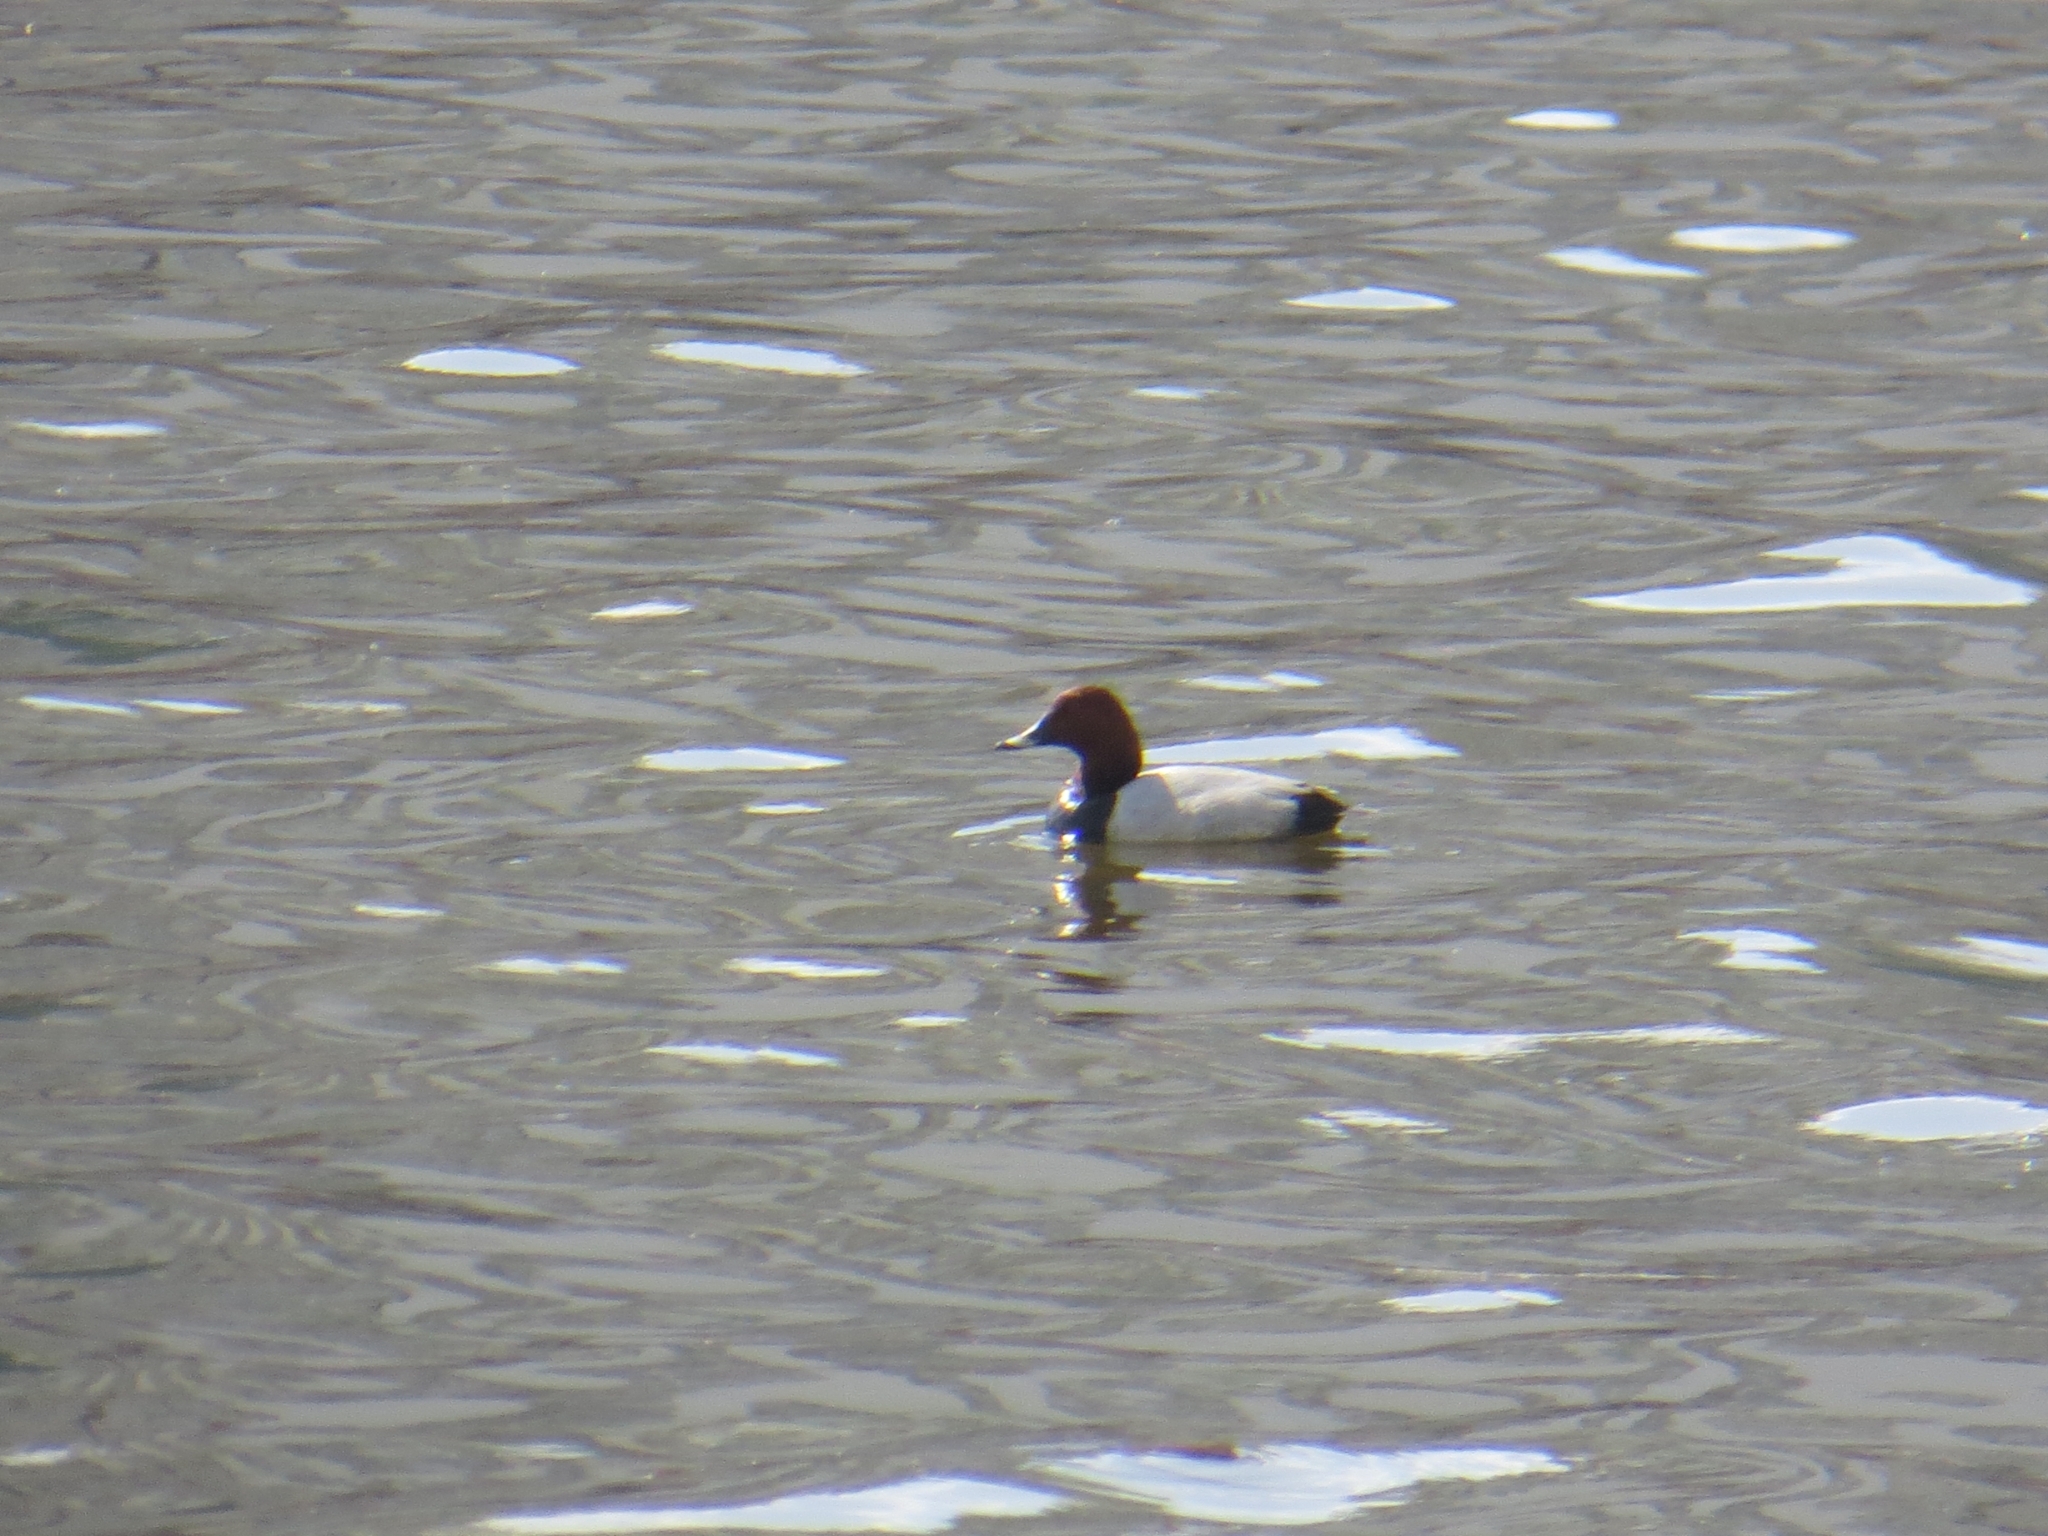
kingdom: Animalia
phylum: Chordata
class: Aves
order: Anseriformes
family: Anatidae
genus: Aythya
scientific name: Aythya ferina
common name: Common pochard
